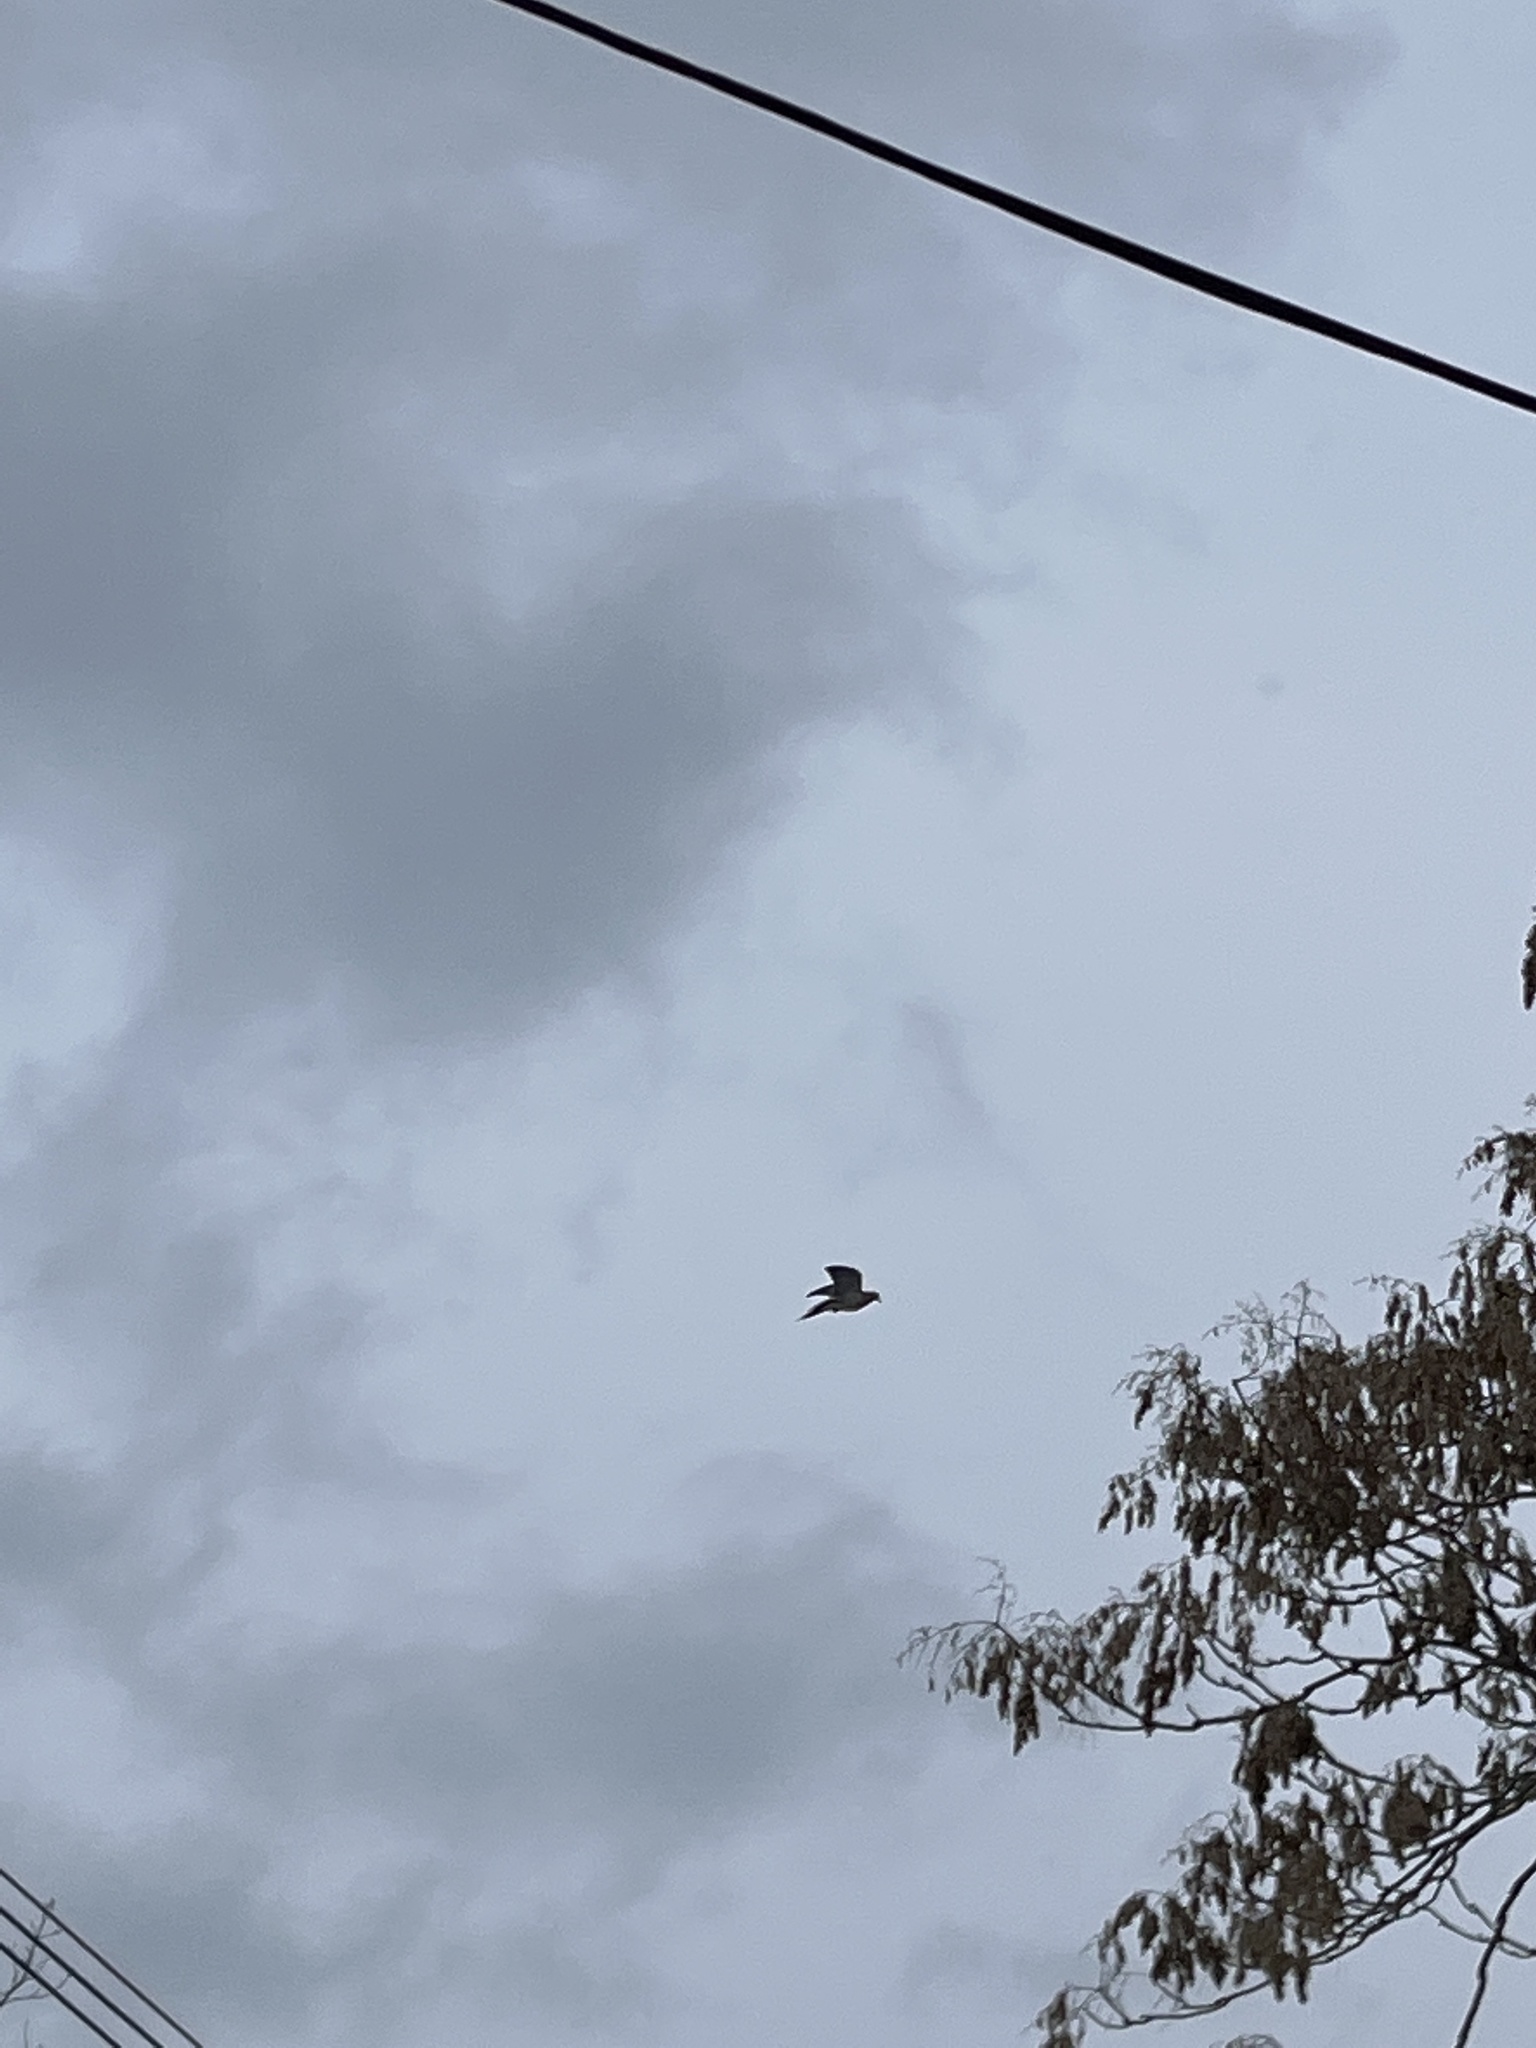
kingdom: Animalia
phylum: Chordata
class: Aves
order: Columbiformes
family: Columbidae
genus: Zenaida
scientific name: Zenaida macroura
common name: Mourning dove
